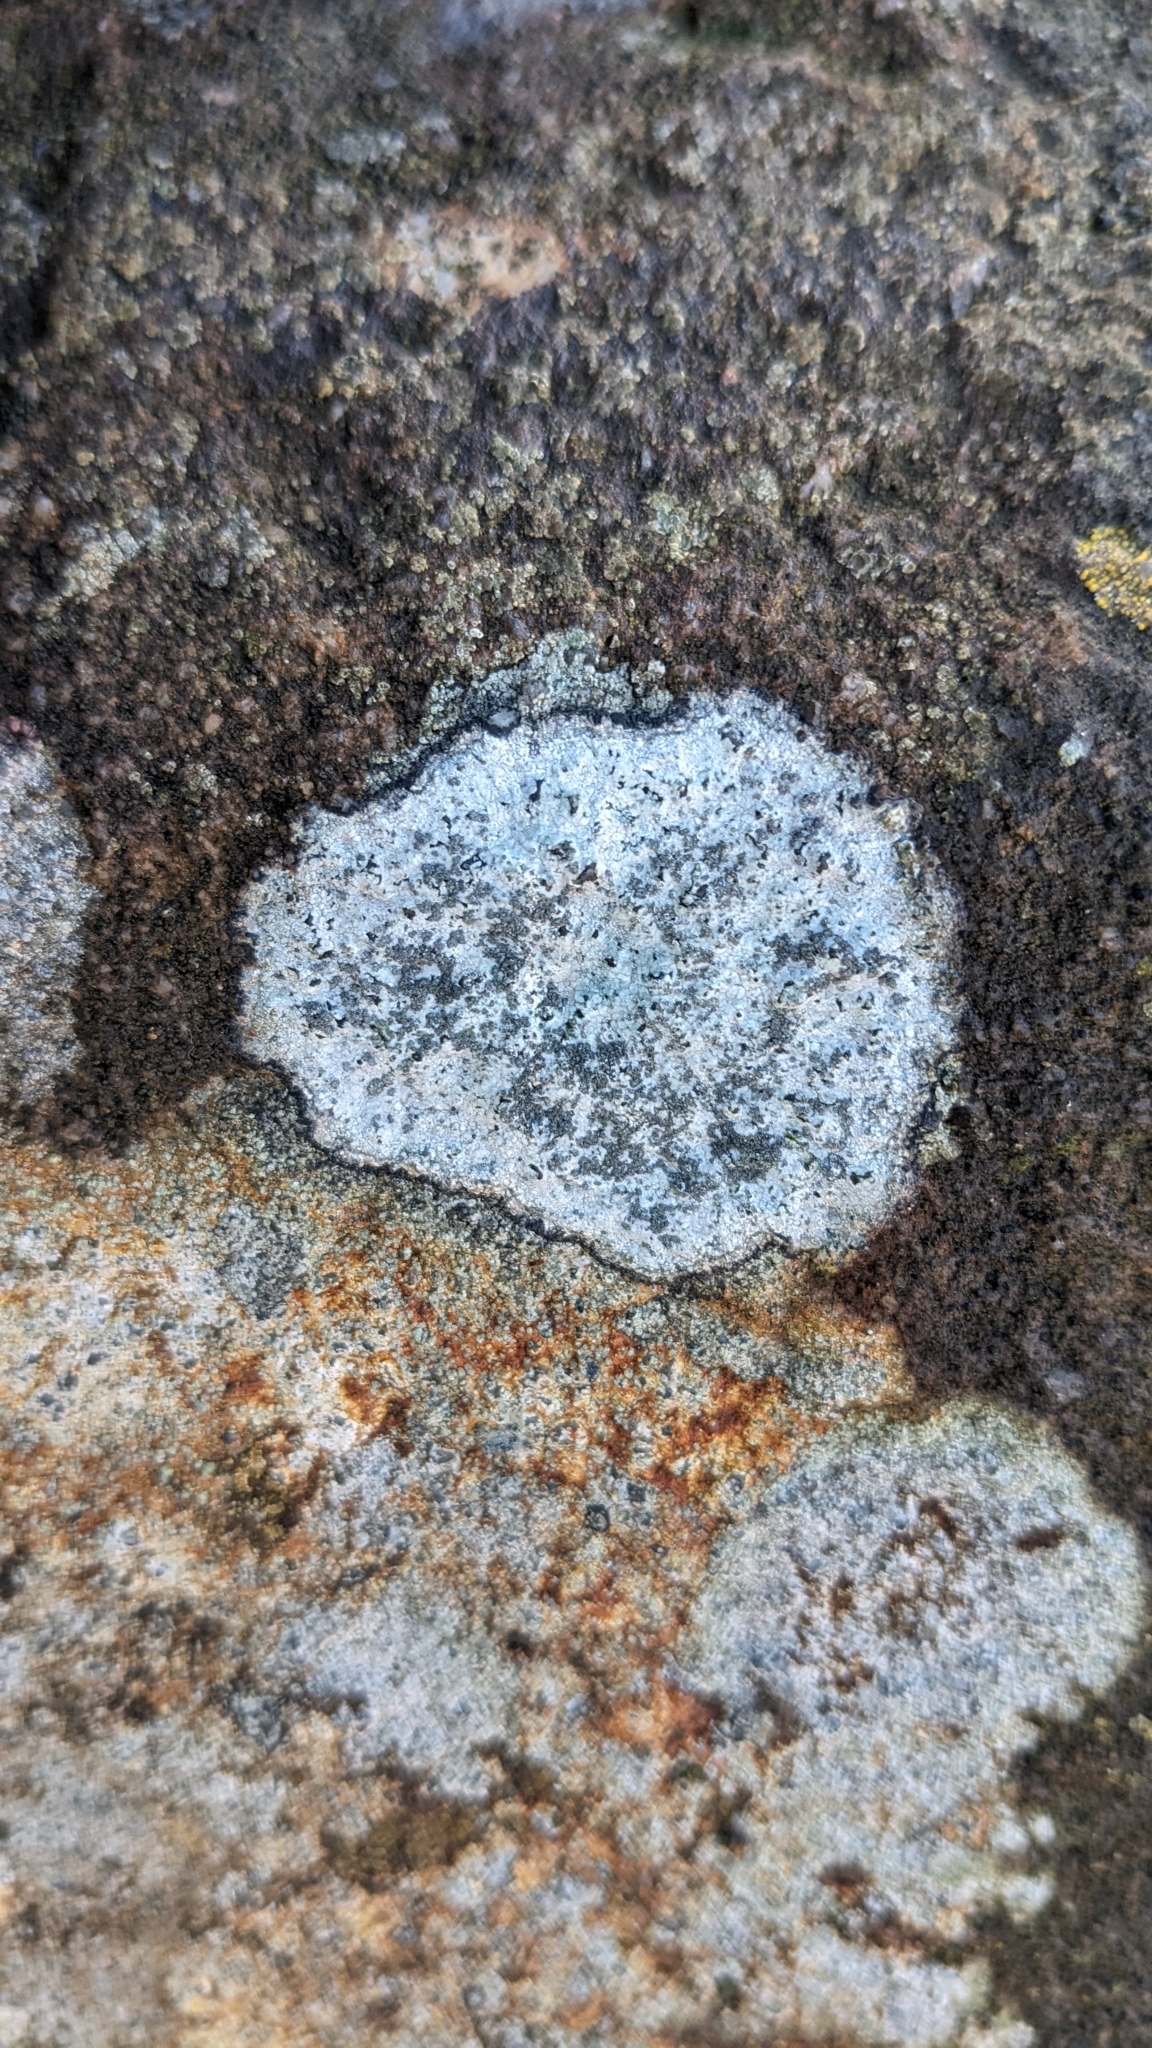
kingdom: Fungi
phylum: Ascomycota
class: Lecanoromycetes
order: Lecideales
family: Lecideaceae
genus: Porpidia
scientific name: Porpidia tuberculosa
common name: Boulder lichen
